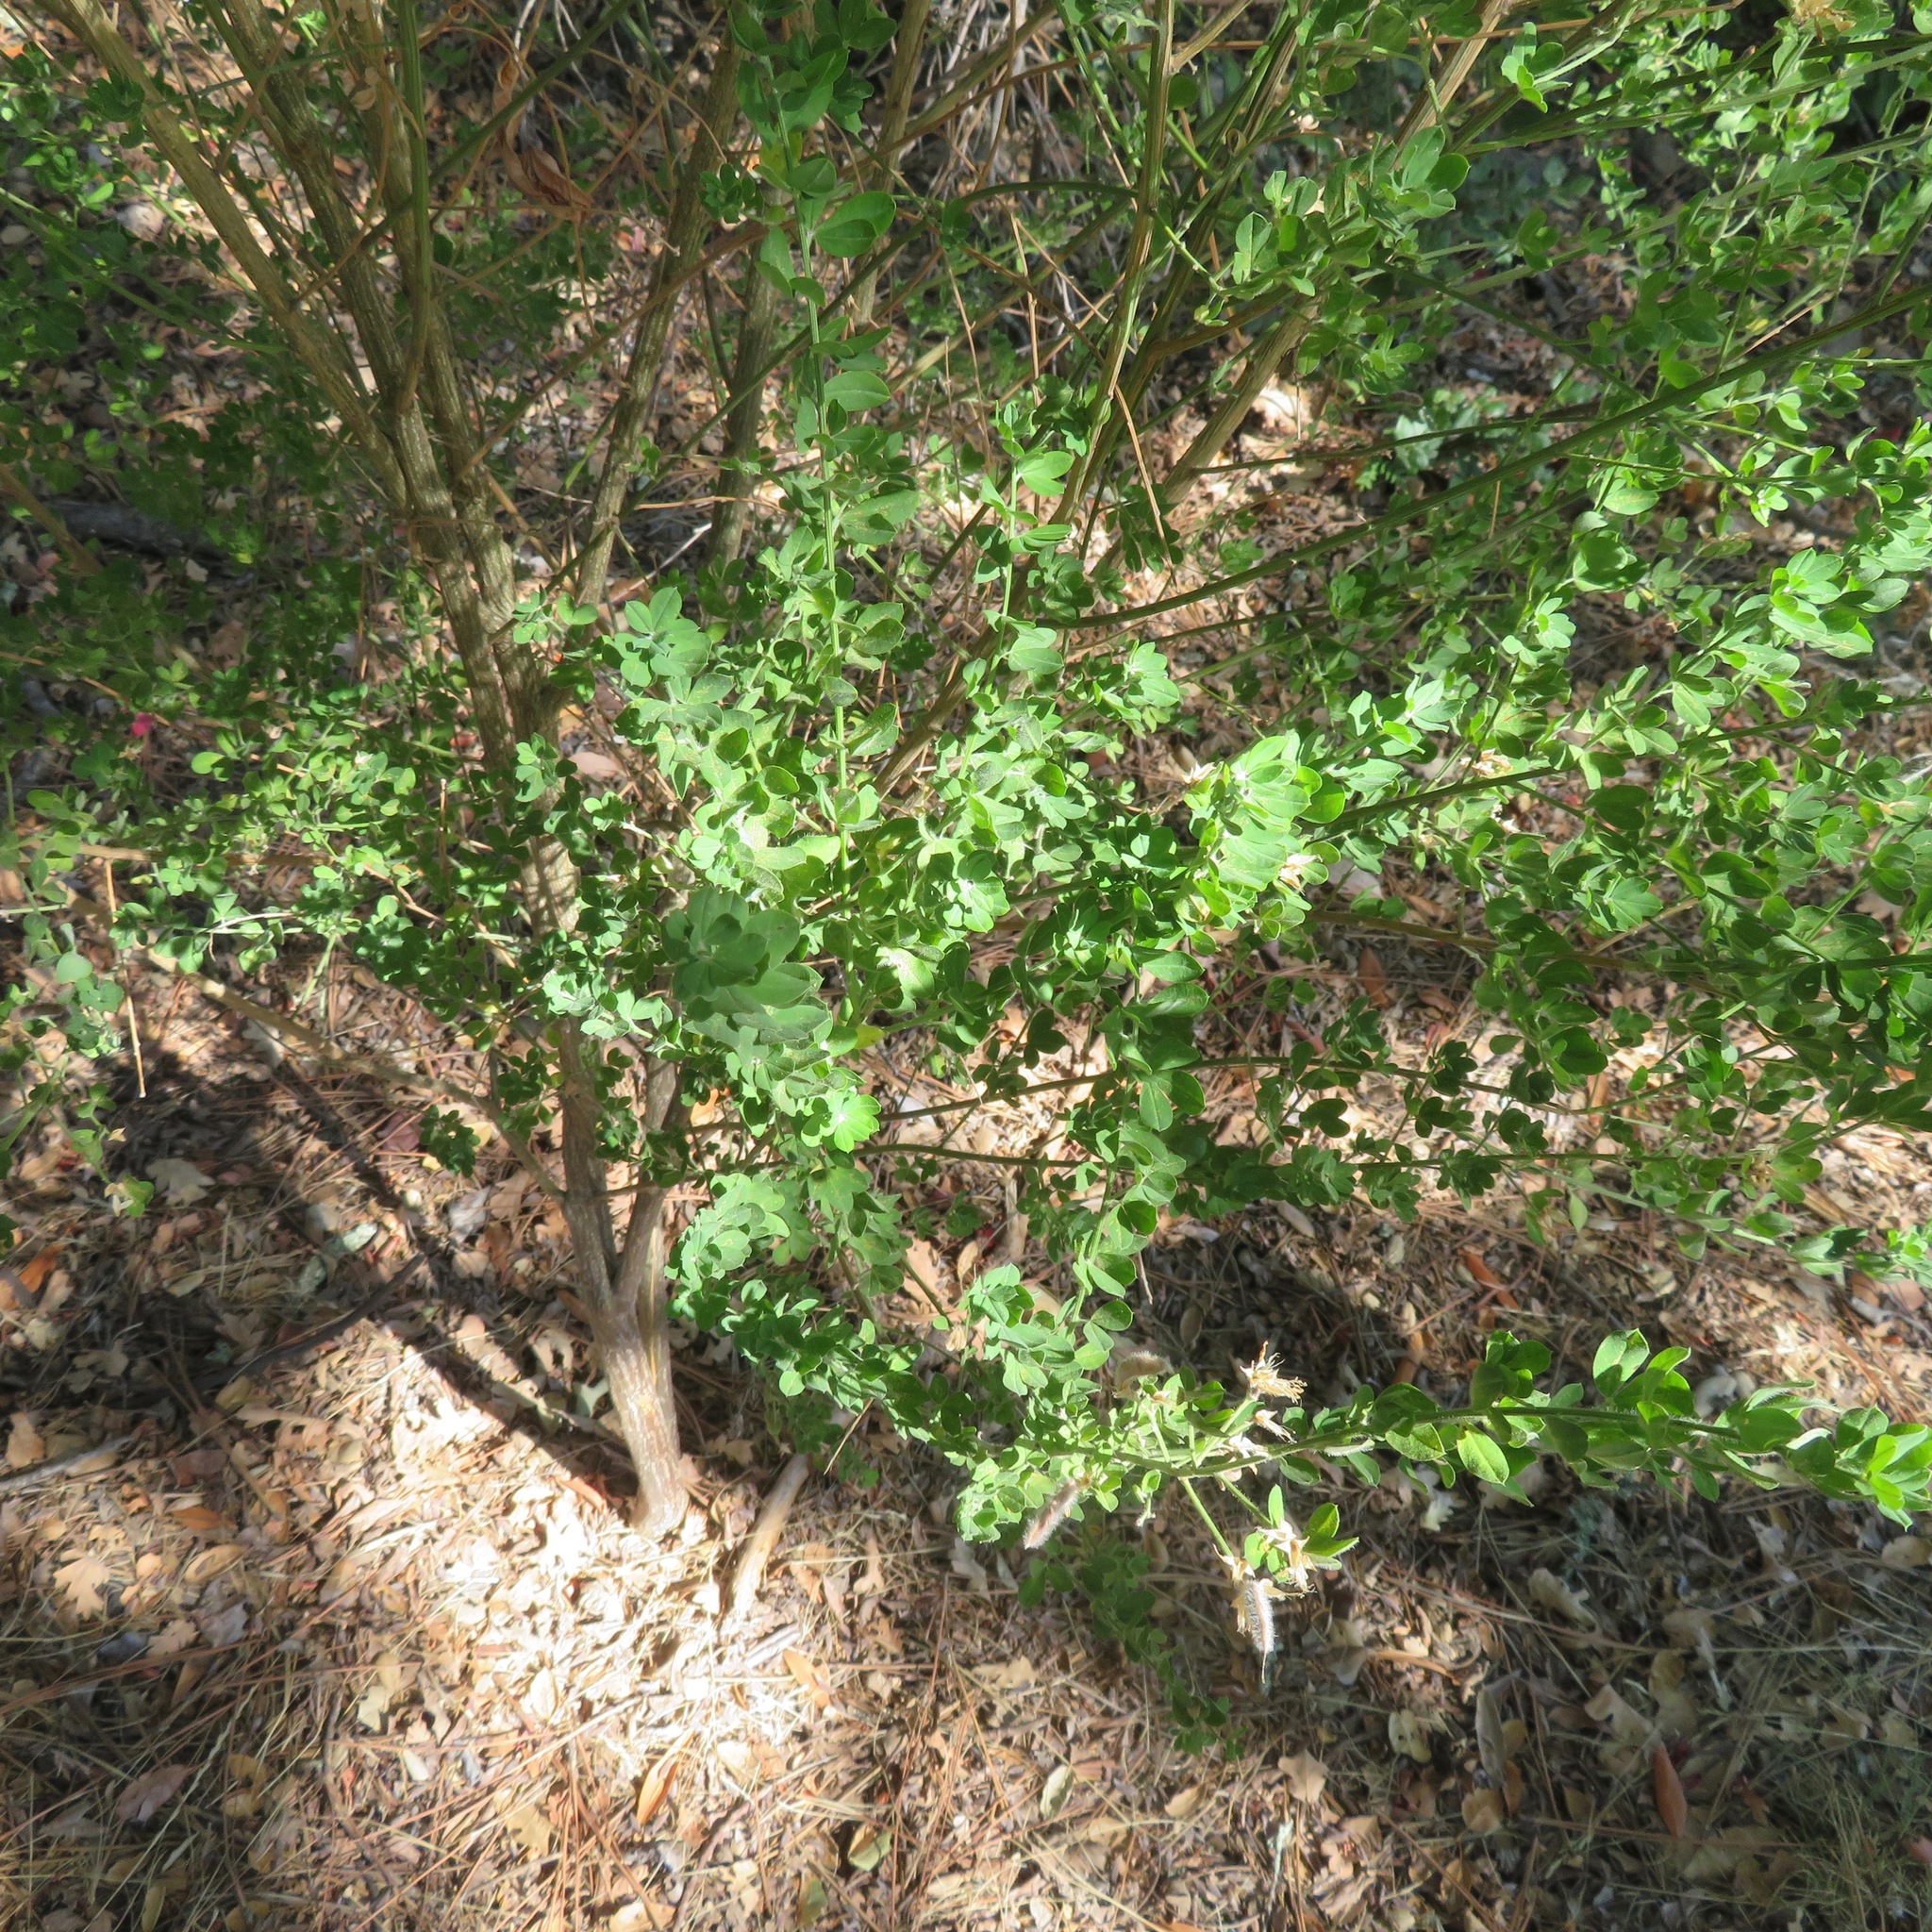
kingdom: Plantae
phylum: Tracheophyta
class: Magnoliopsida
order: Fabales
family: Fabaceae
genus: Genista
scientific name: Genista monspessulana
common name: Montpellier broom
